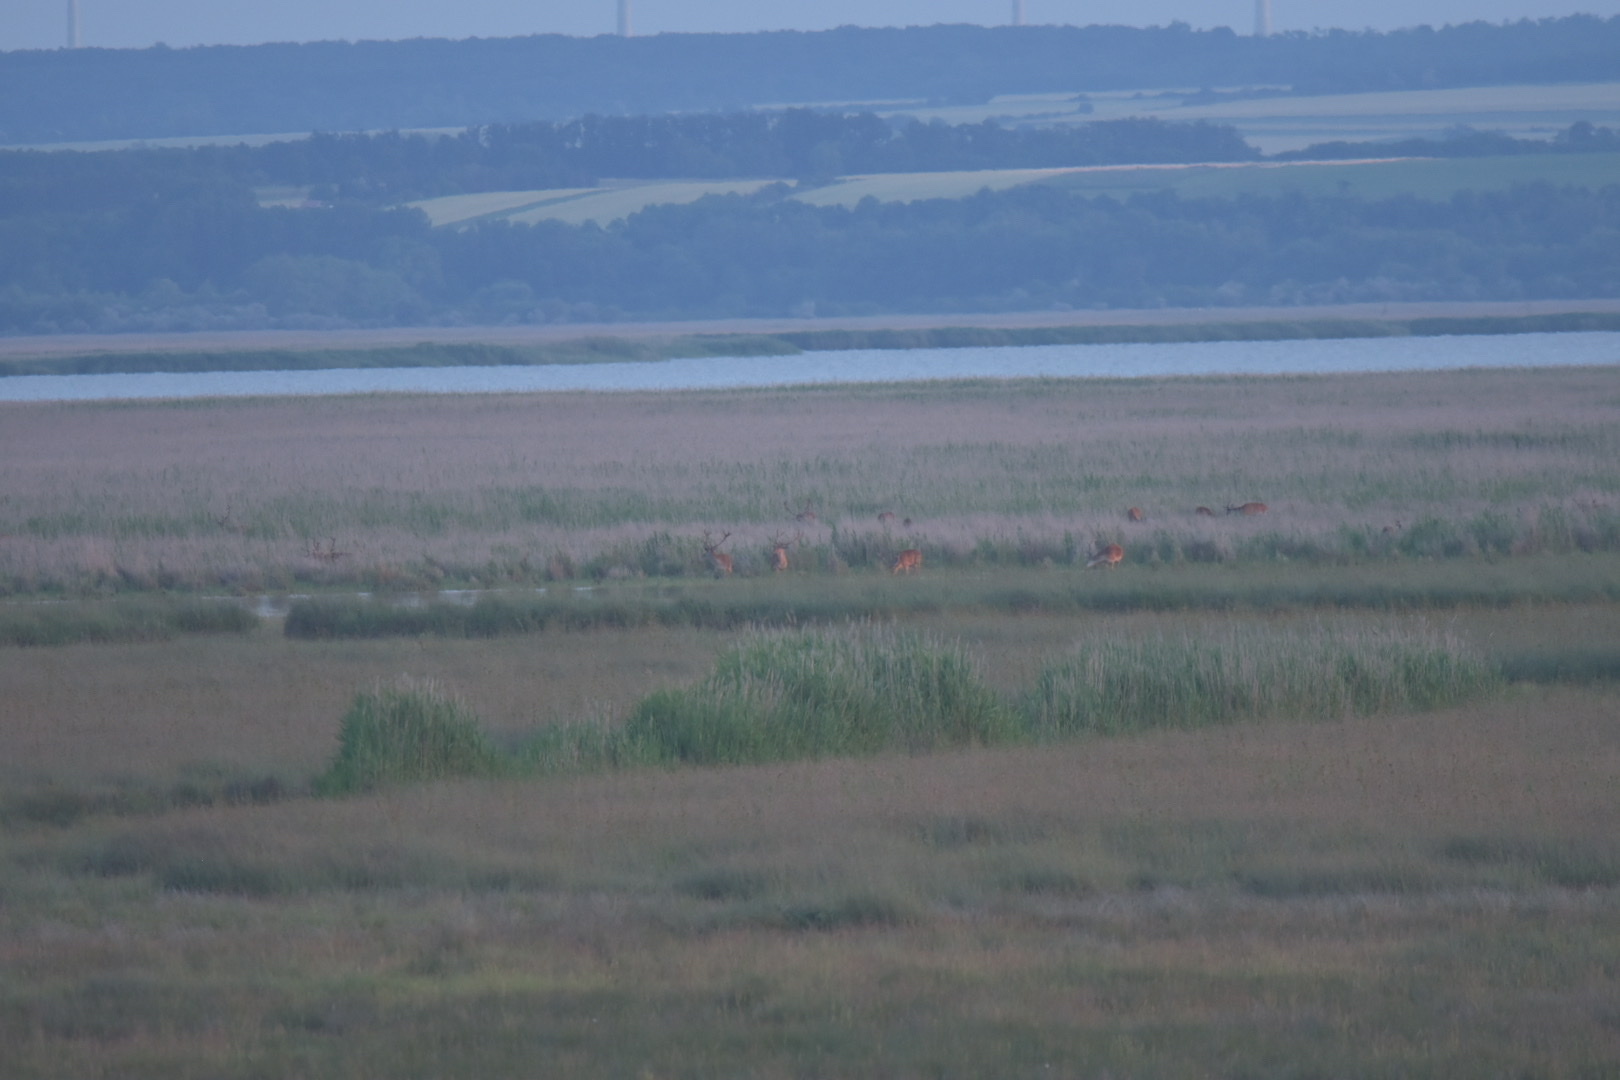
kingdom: Animalia
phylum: Chordata
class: Mammalia
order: Artiodactyla
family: Cervidae
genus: Cervus
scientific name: Cervus elaphus
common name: Red deer
